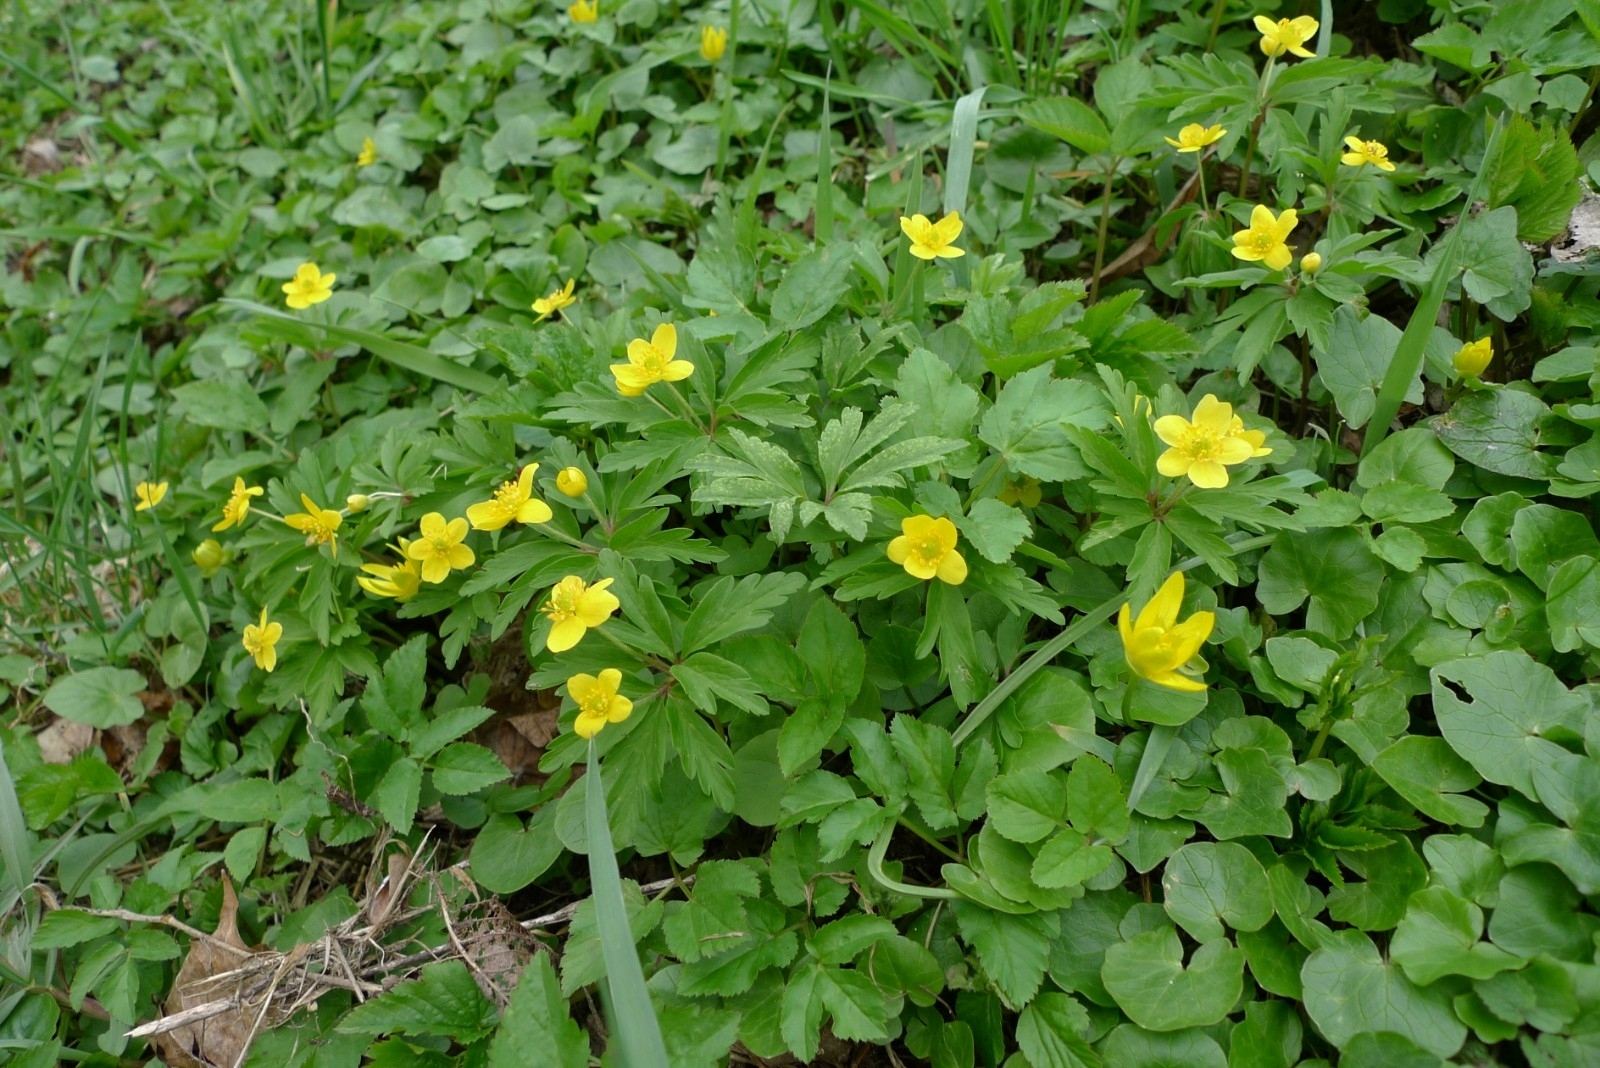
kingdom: Plantae
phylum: Tracheophyta
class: Magnoliopsida
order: Ranunculales
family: Ranunculaceae
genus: Anemone
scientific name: Anemone ranunculoides
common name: Yellow anemone
